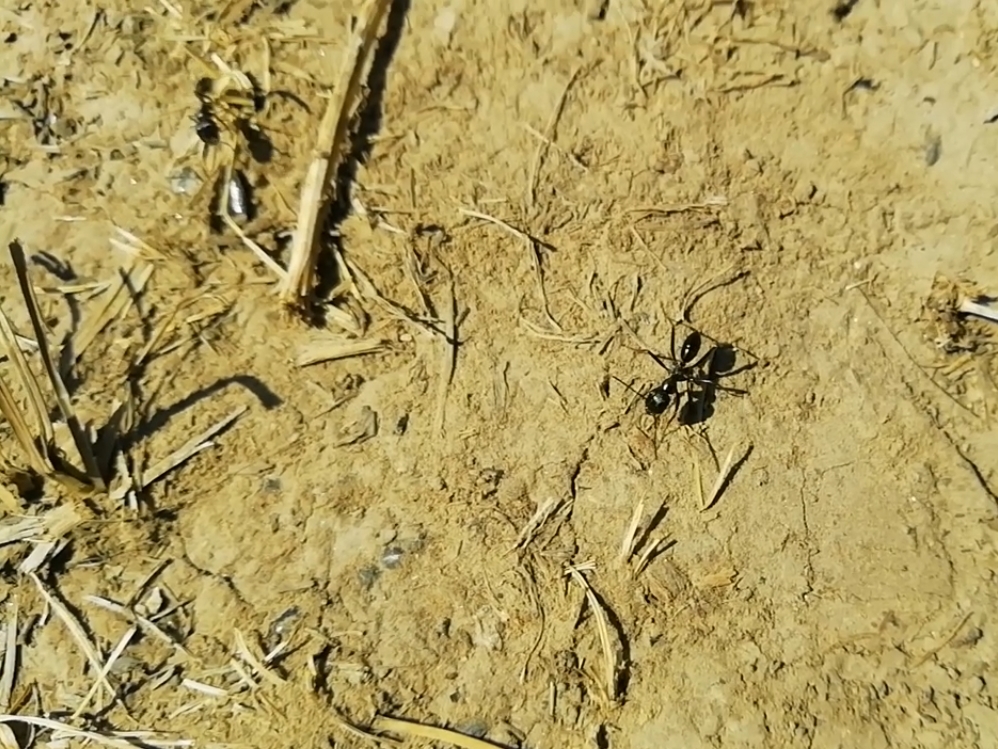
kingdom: Animalia
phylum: Arthropoda
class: Insecta
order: Hymenoptera
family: Formicidae
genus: Cataglyphis
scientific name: Cataglyphis aenescens
